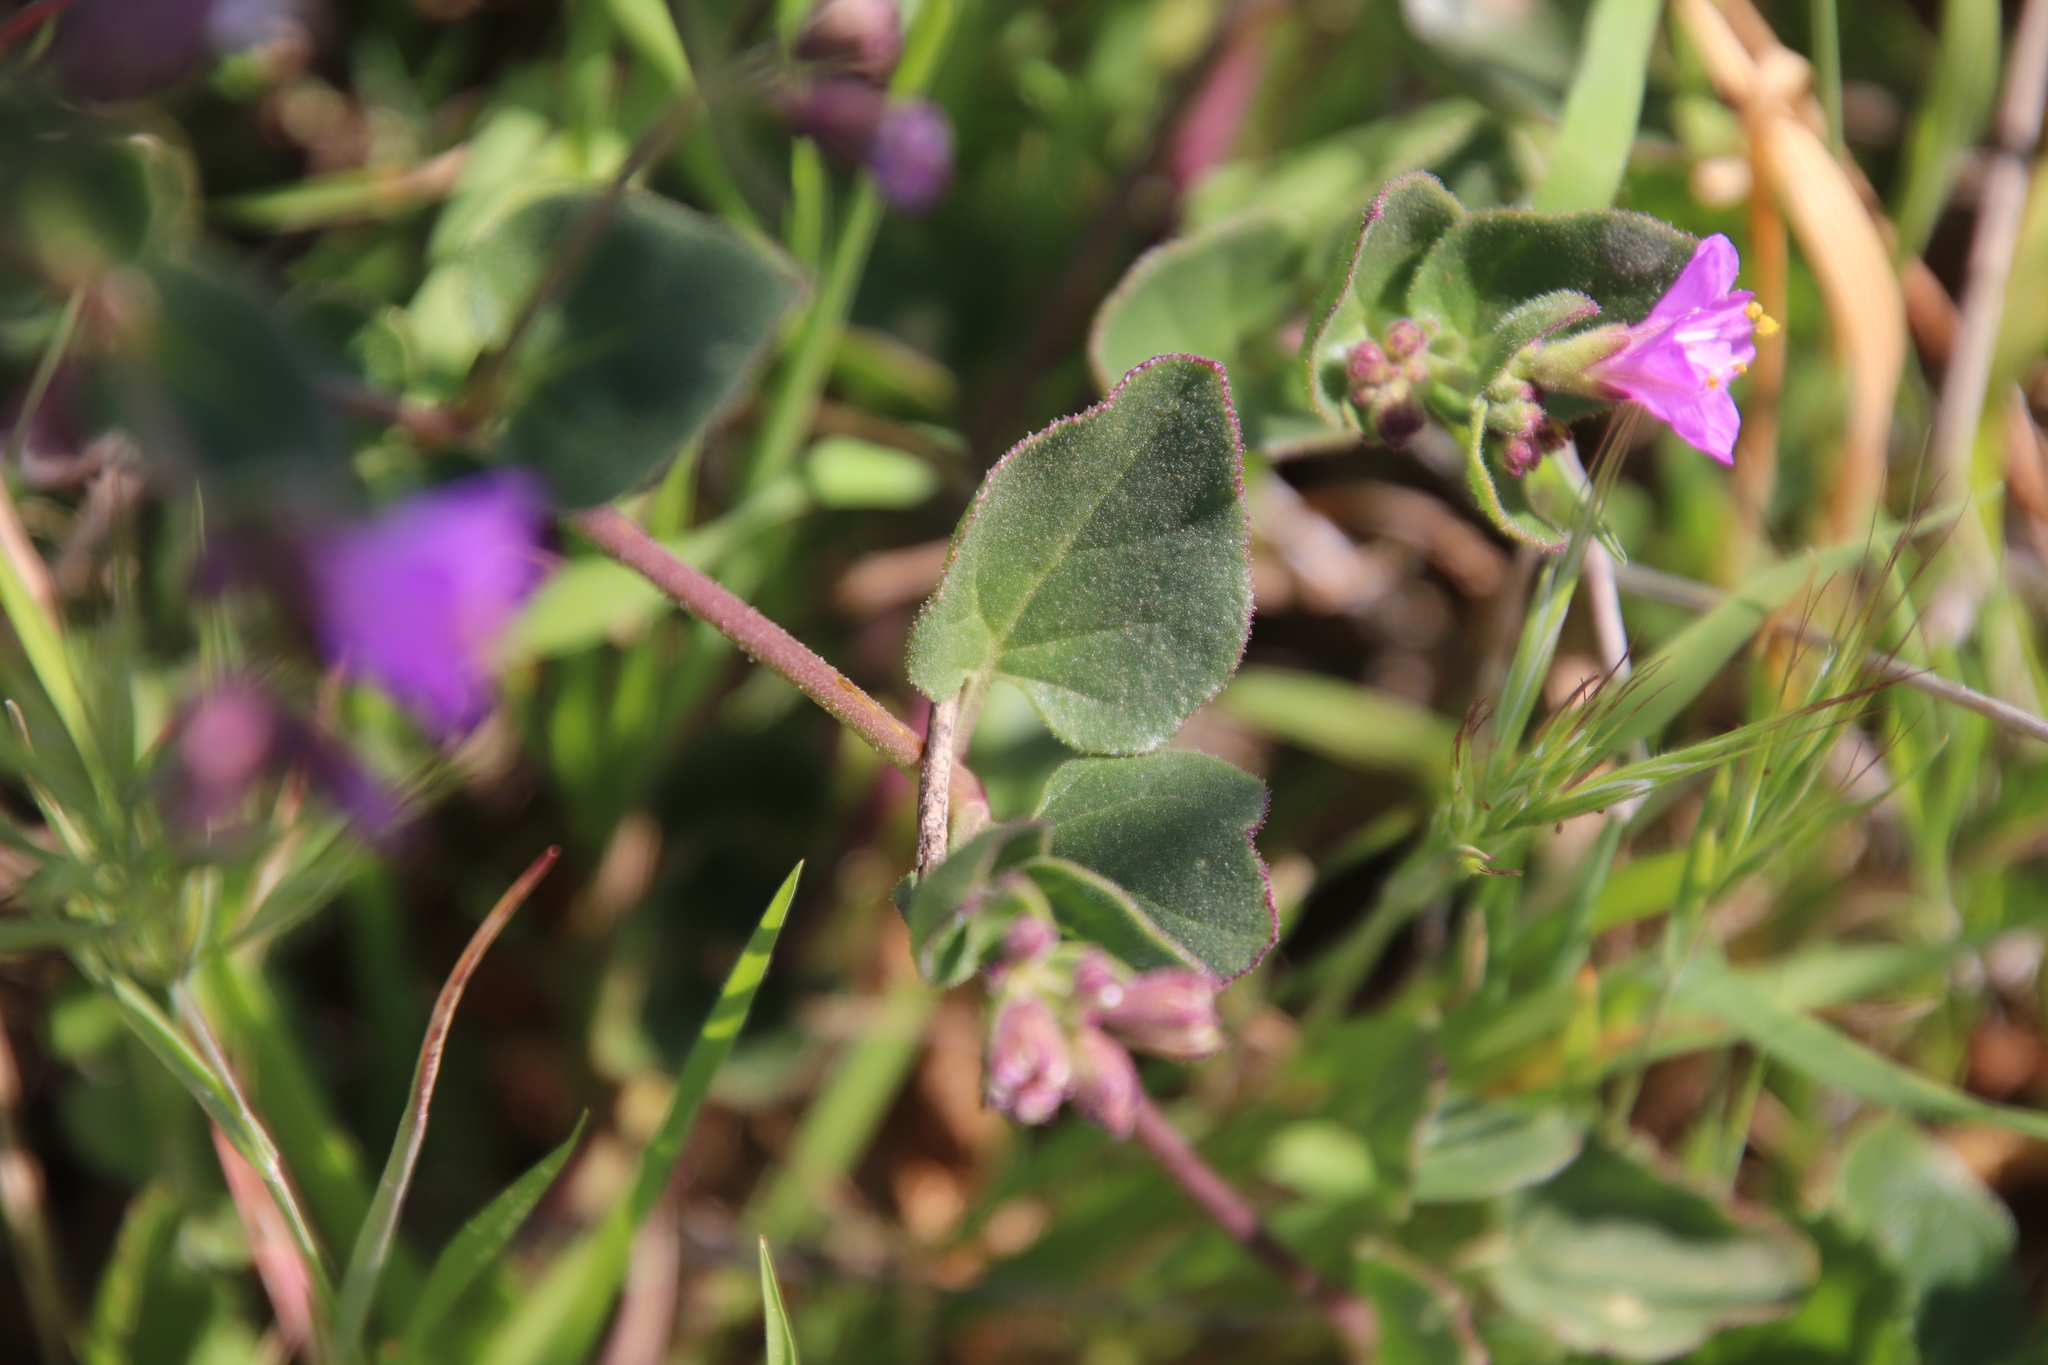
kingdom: Plantae
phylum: Tracheophyta
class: Magnoliopsida
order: Caryophyllales
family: Nyctaginaceae
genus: Mirabilis
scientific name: Mirabilis laevis
